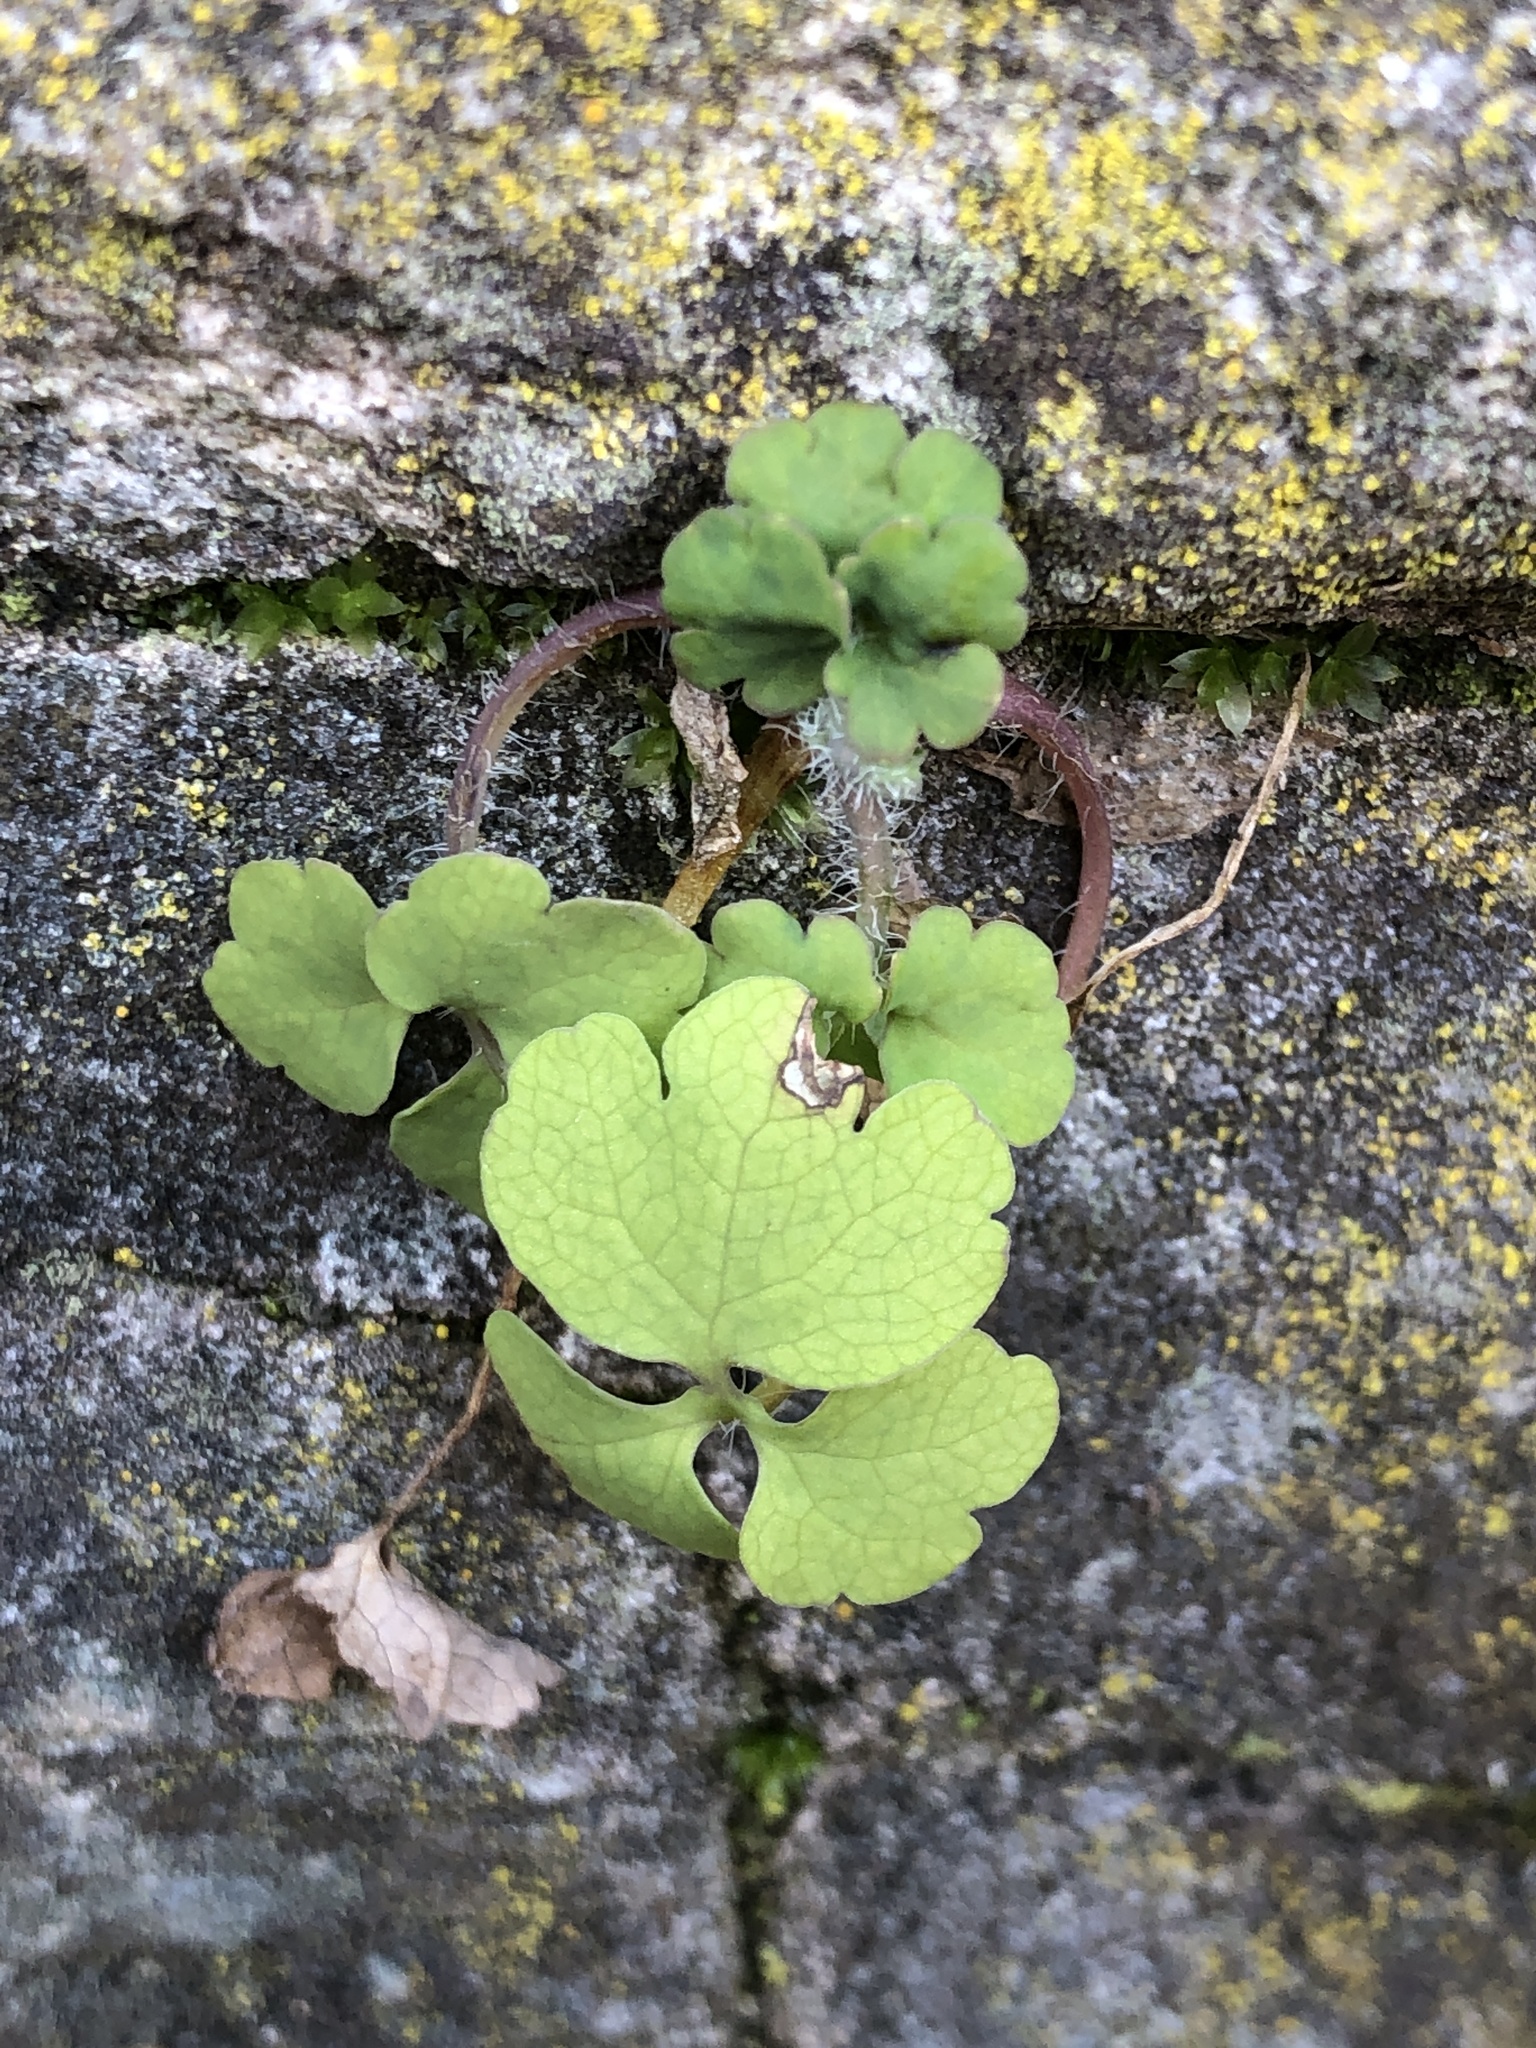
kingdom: Plantae
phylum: Tracheophyta
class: Magnoliopsida
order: Ranunculales
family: Papaveraceae
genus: Chelidonium
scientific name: Chelidonium majus
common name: Greater celandine
